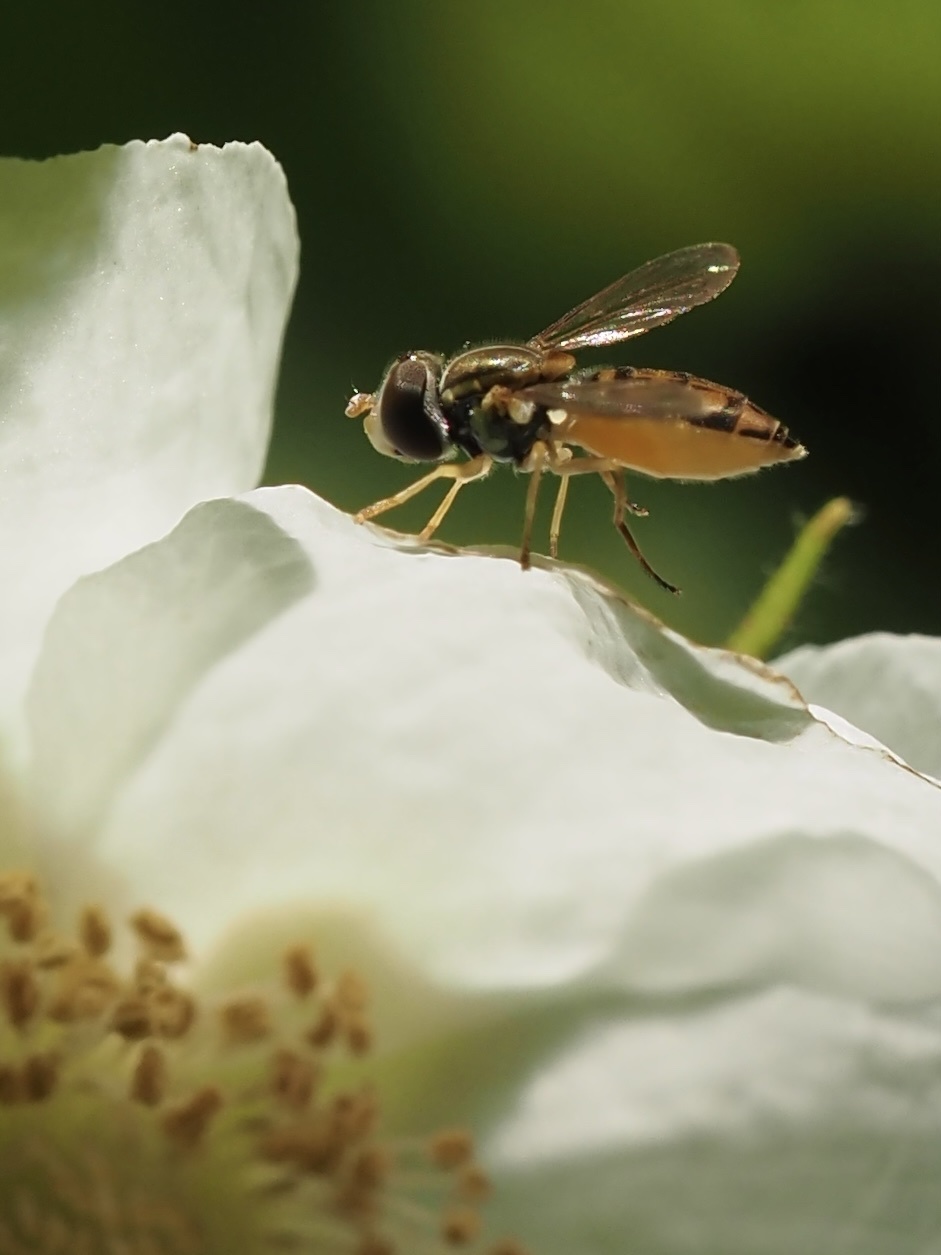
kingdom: Animalia
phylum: Arthropoda
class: Insecta
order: Diptera
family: Syrphidae
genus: Toxomerus
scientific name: Toxomerus marginatus
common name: Syrphid fly
